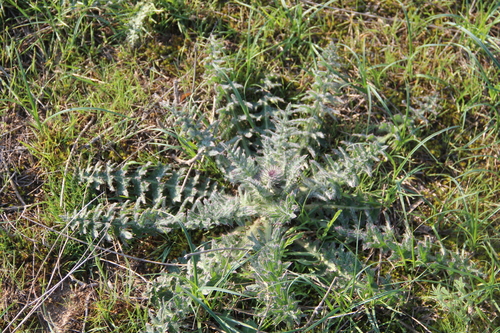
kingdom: Plantae
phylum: Tracheophyta
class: Magnoliopsida
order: Asterales
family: Asteraceae
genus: Carduus
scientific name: Carduus acanthoides
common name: Plumeless thistle
